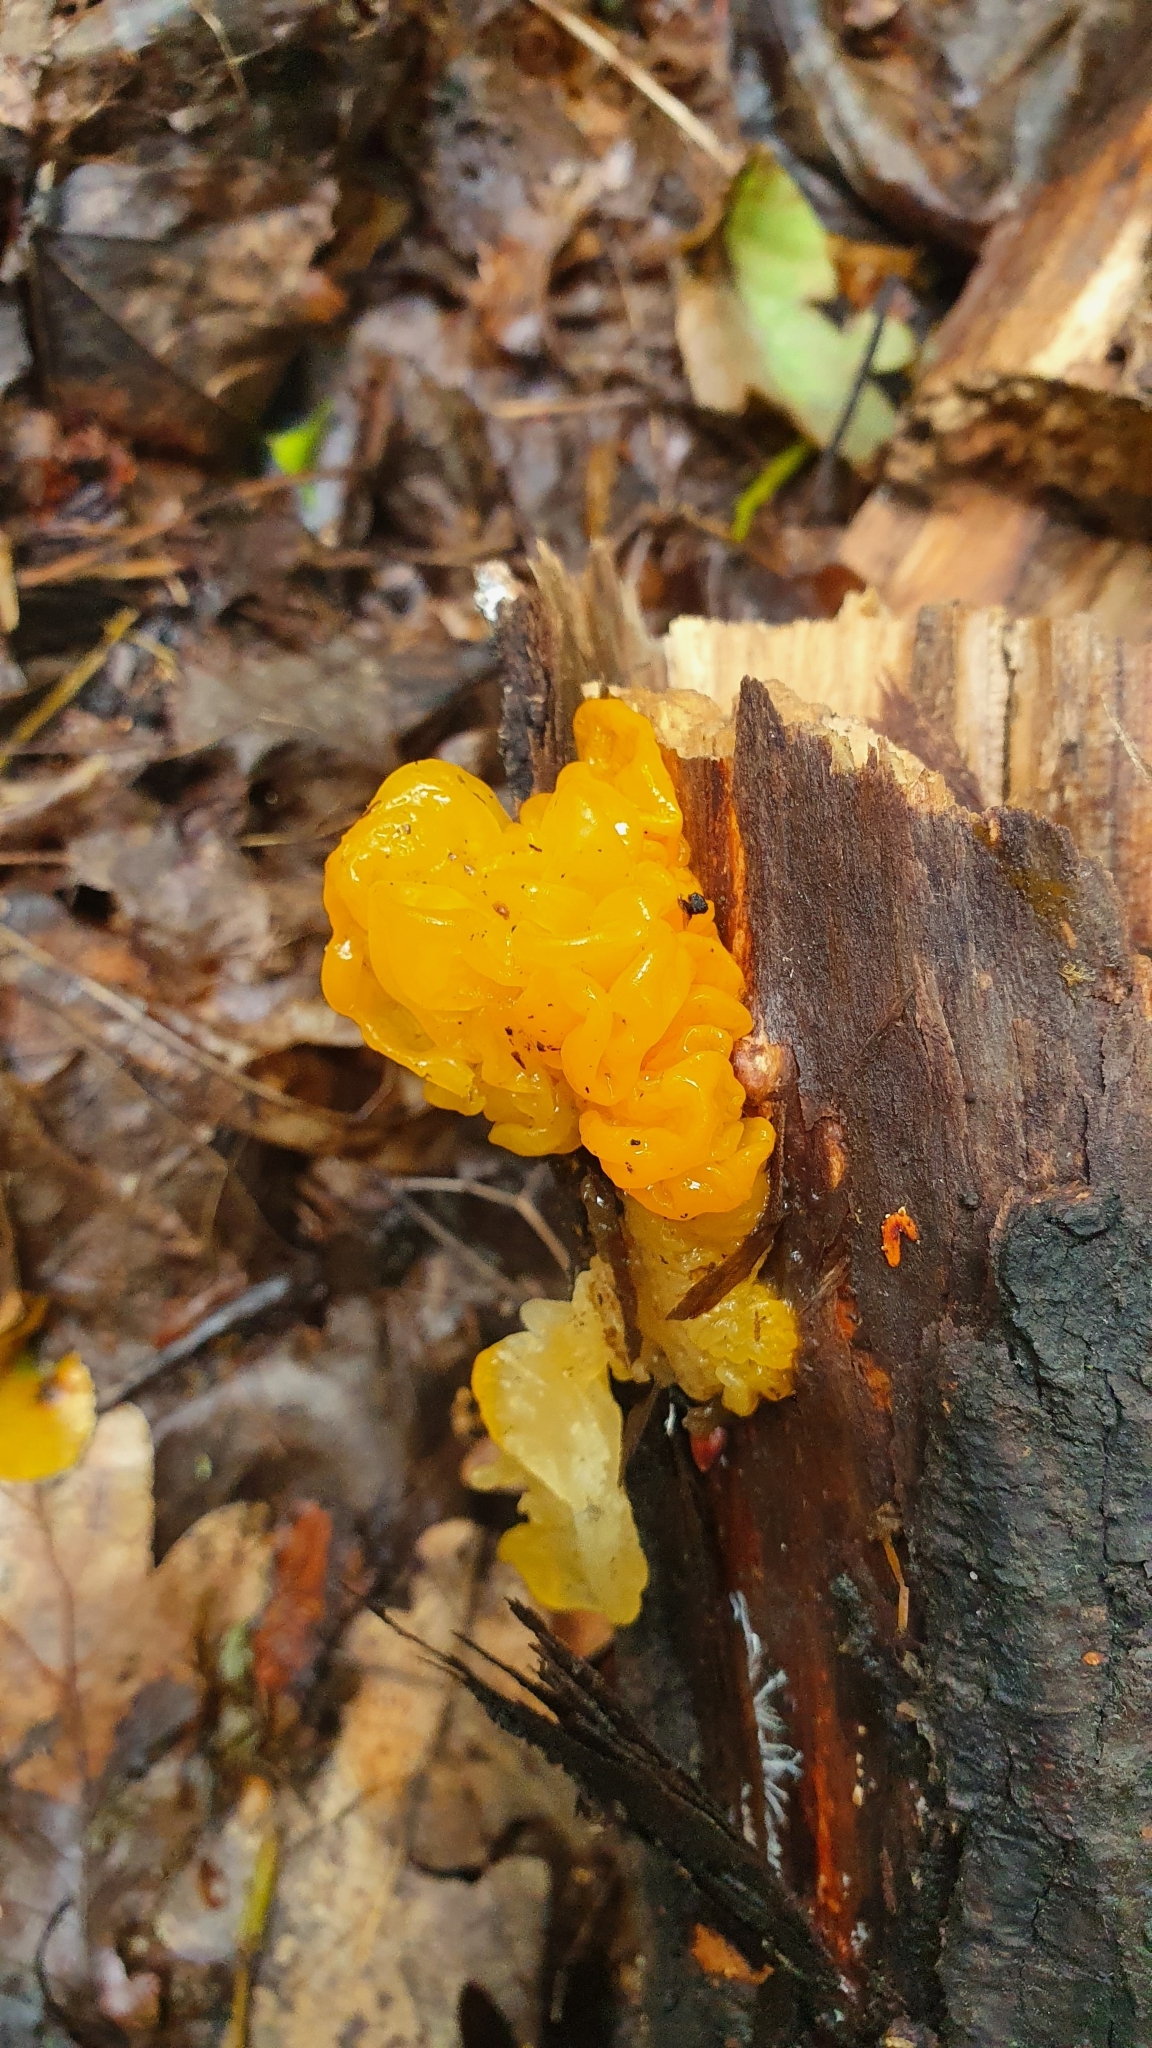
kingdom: Fungi
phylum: Basidiomycota
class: Tremellomycetes
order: Tremellales
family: Tremellaceae
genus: Tremella
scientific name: Tremella mesenterica
